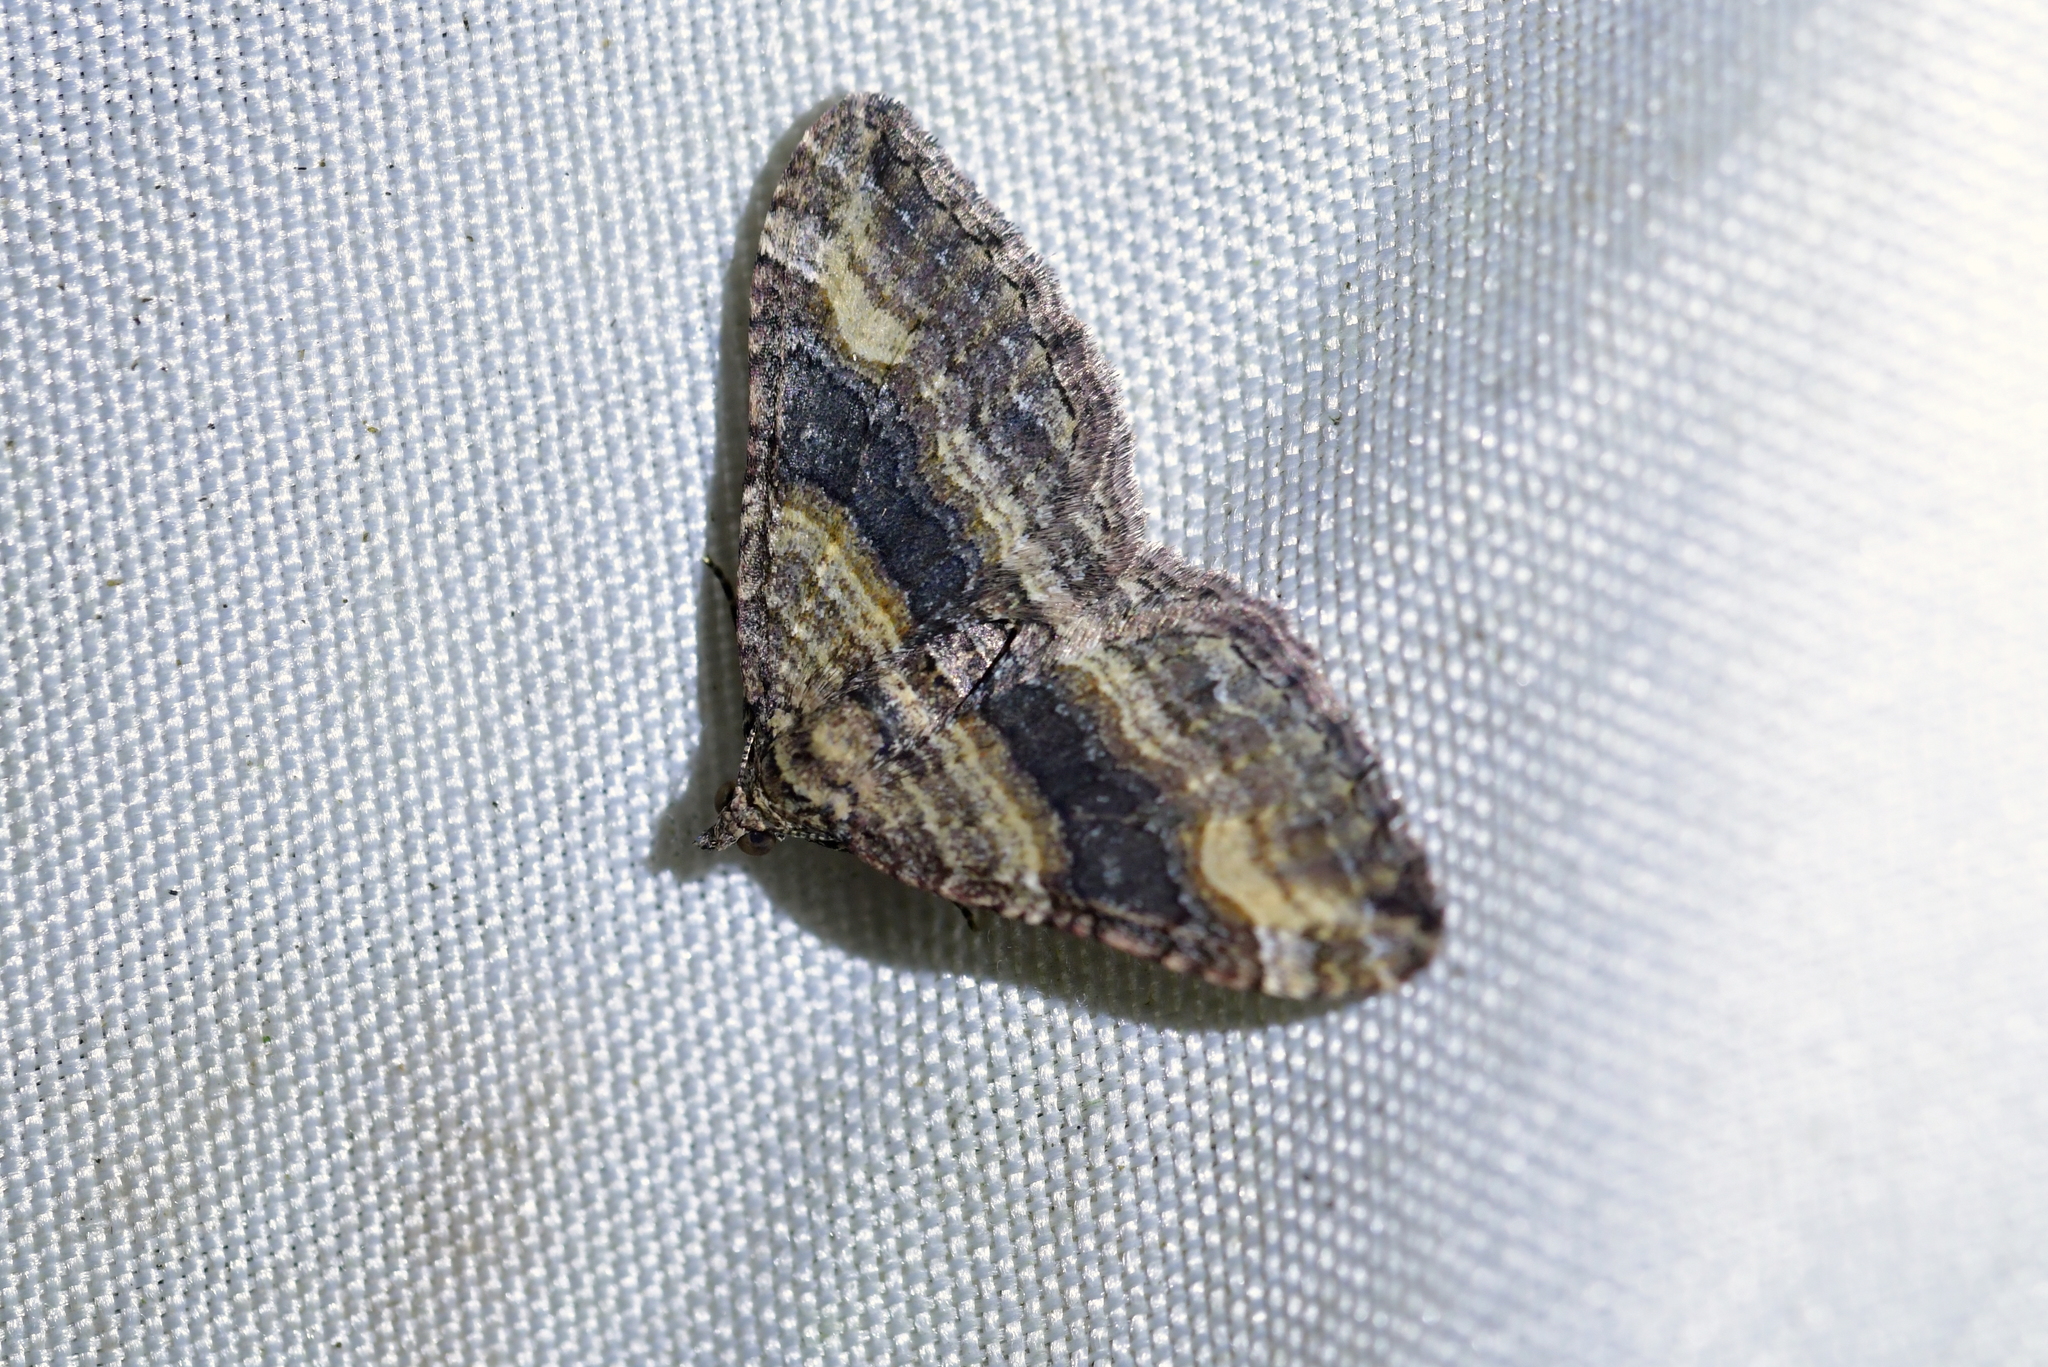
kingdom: Animalia
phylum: Arthropoda
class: Insecta
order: Lepidoptera
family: Geometridae
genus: Epyaxa
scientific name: Epyaxa lucidata
